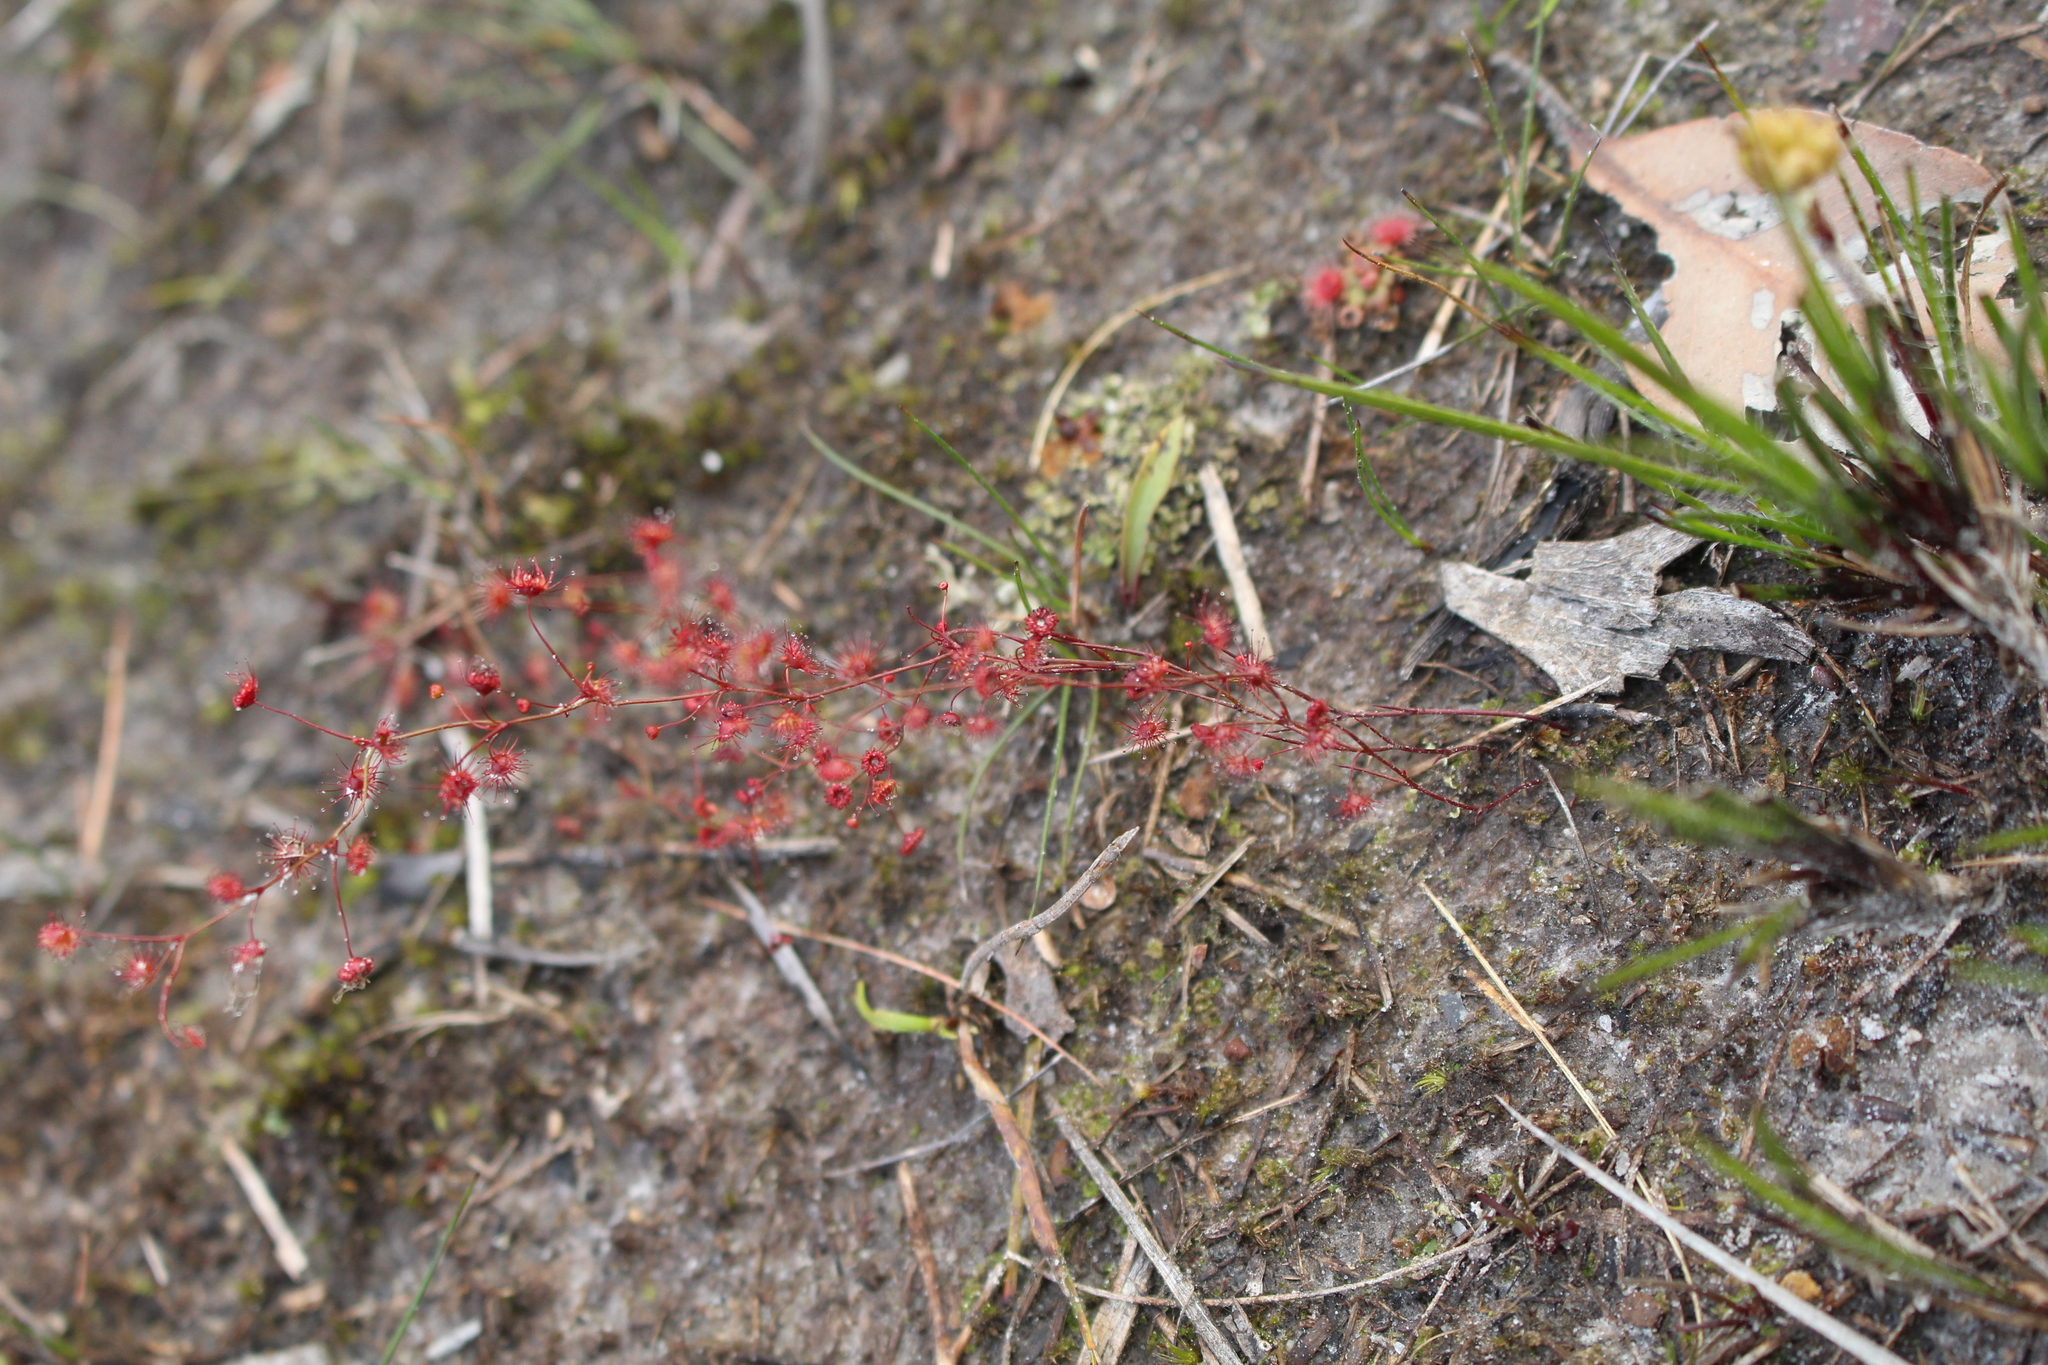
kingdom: Plantae
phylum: Tracheophyta
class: Magnoliopsida
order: Caryophyllales
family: Droseraceae
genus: Drosera
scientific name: Drosera
